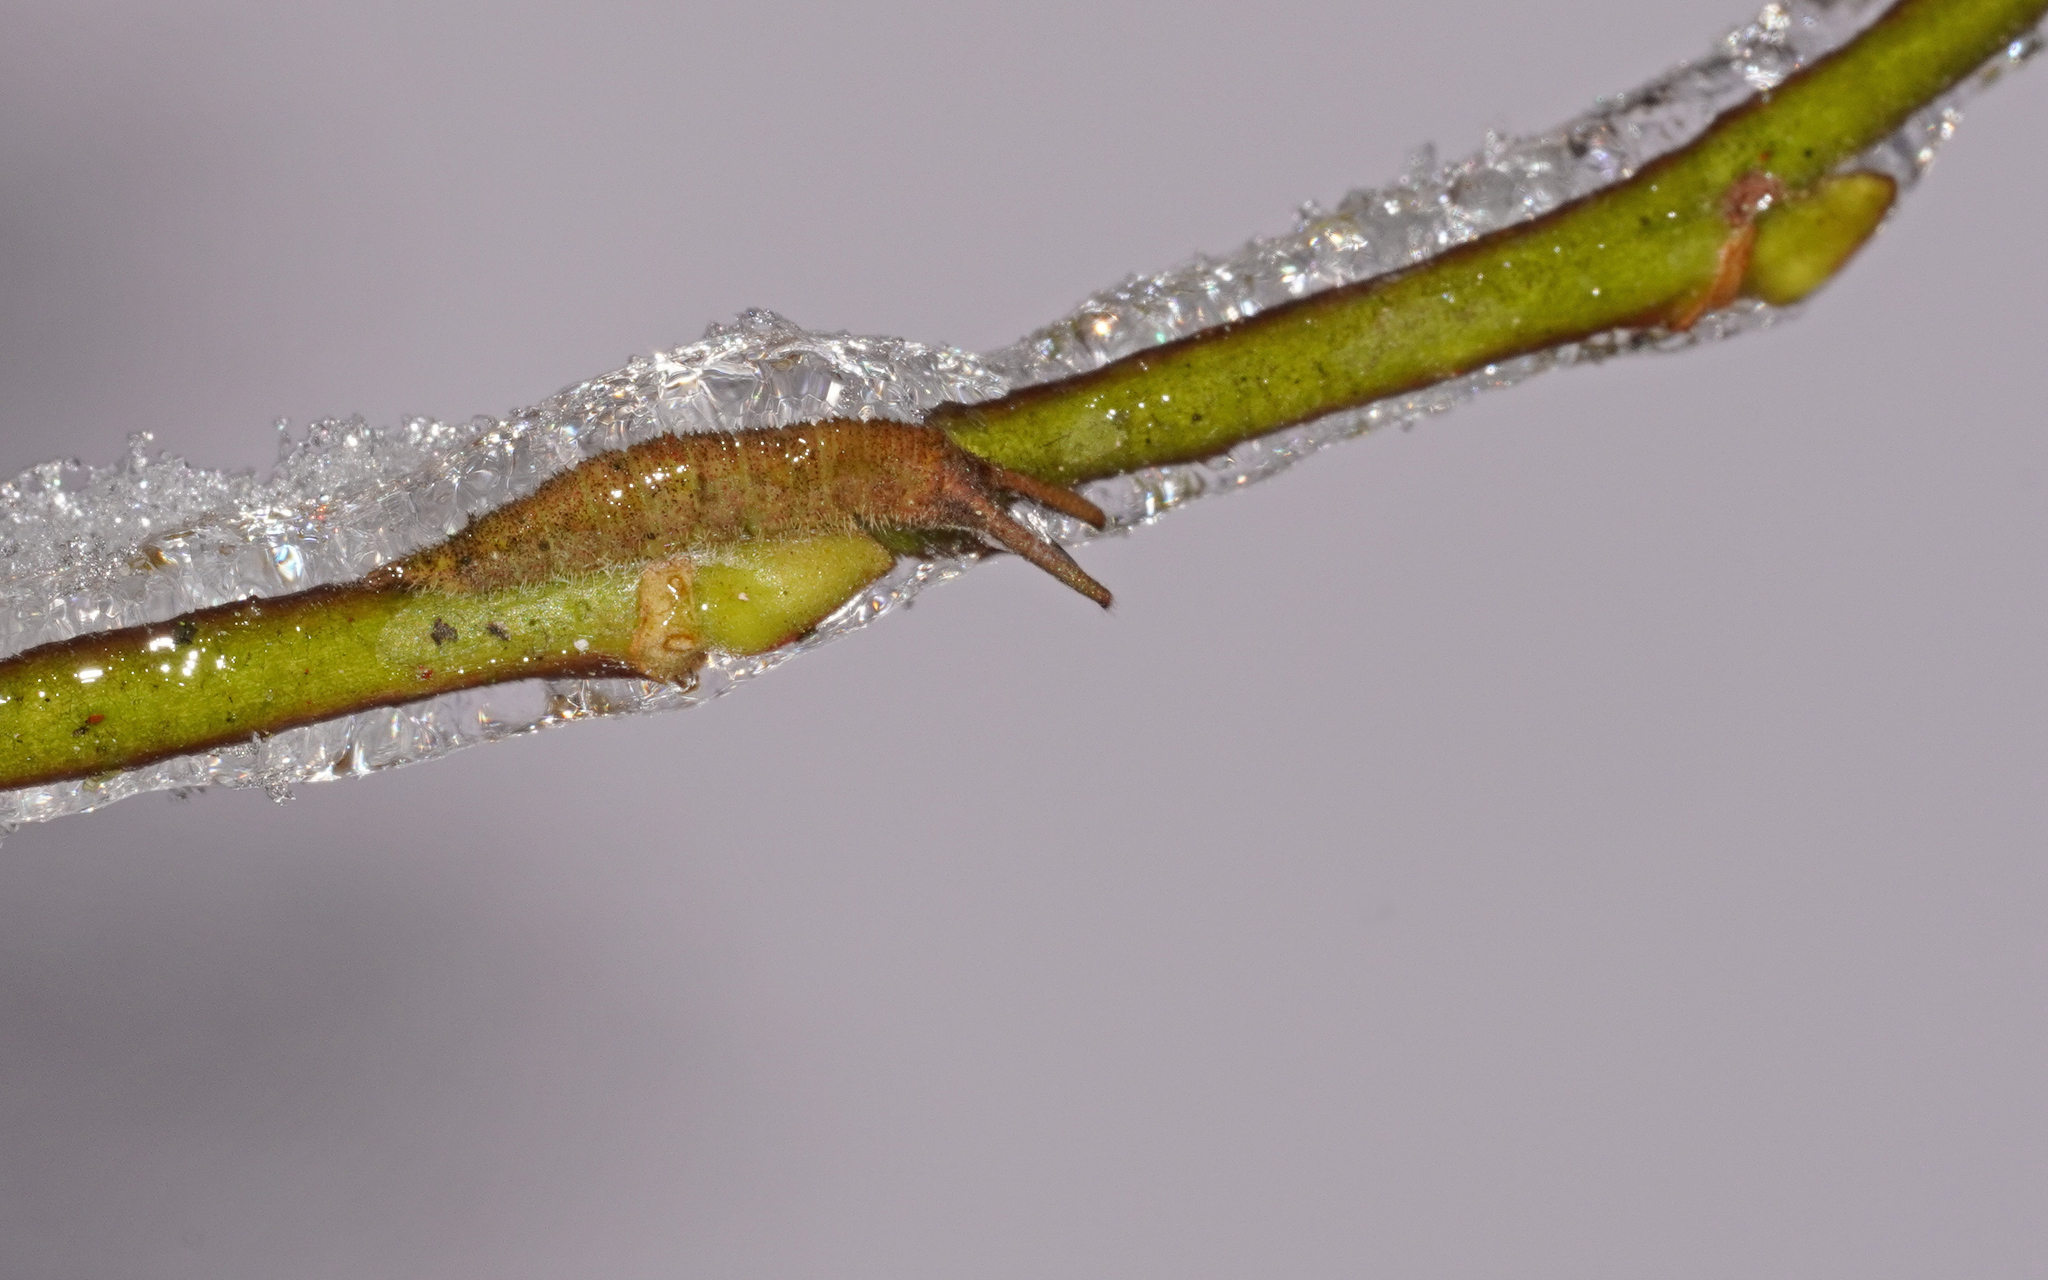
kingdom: Animalia
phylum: Arthropoda
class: Insecta
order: Lepidoptera
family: Nymphalidae
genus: Apatura
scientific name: Apatura iris
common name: Purple emperor
